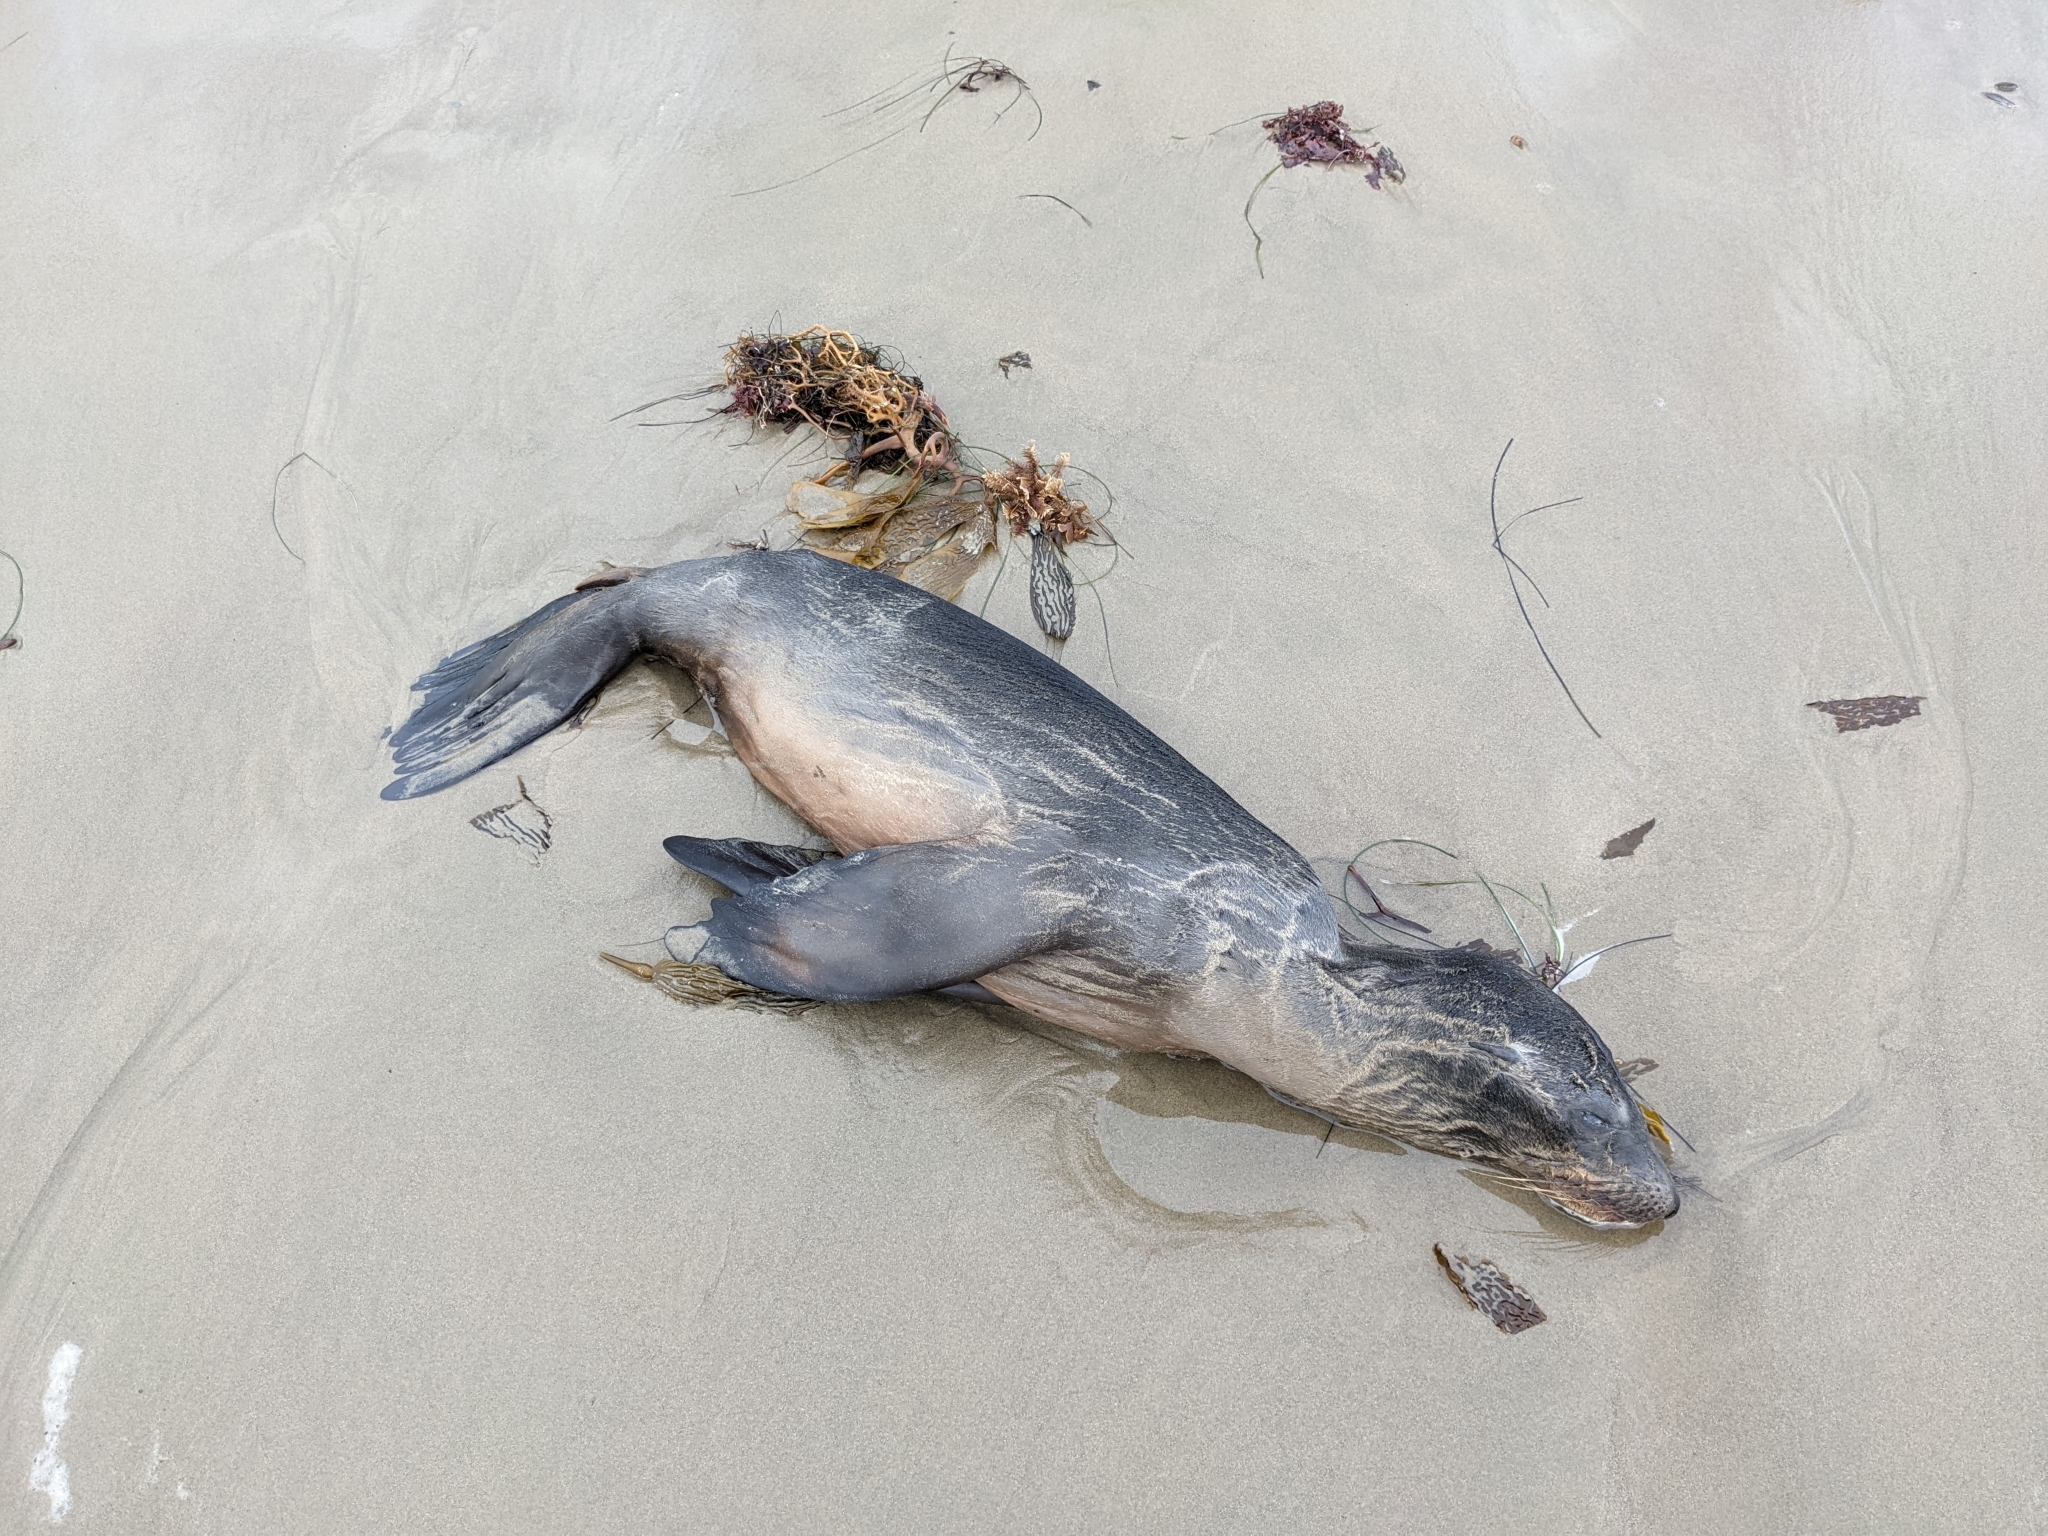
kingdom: Animalia
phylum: Chordata
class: Mammalia
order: Carnivora
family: Otariidae
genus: Zalophus
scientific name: Zalophus californianus
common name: California sea lion
